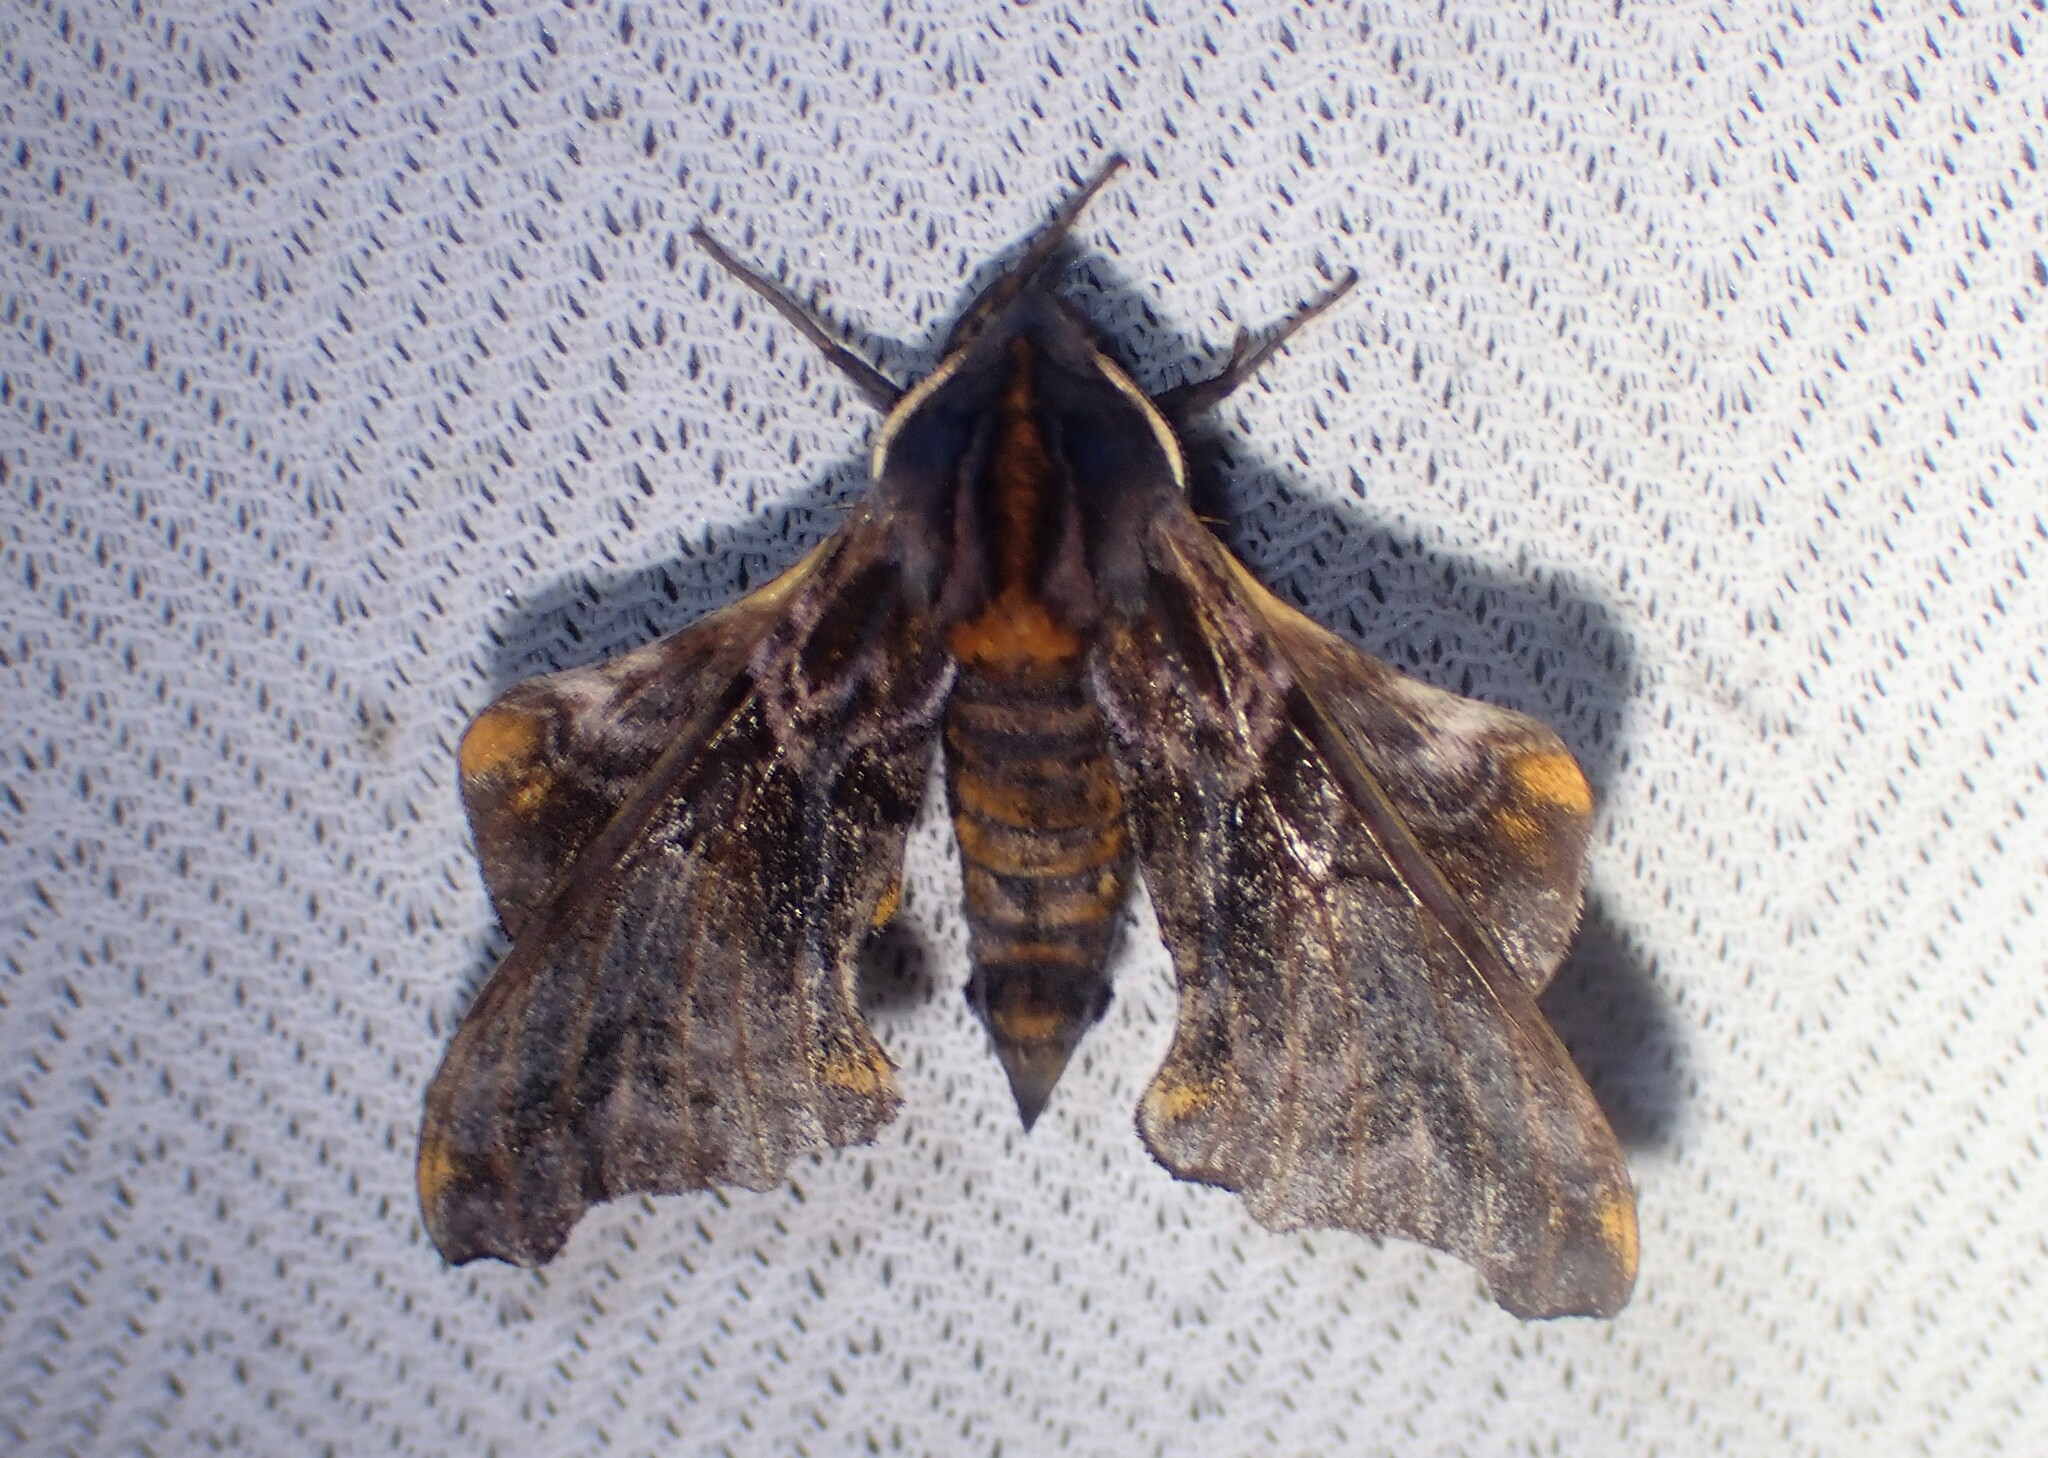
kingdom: Animalia
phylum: Arthropoda
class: Insecta
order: Lepidoptera
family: Sphingidae
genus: Paonias
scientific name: Paonias myops
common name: Small-eyed sphinx
